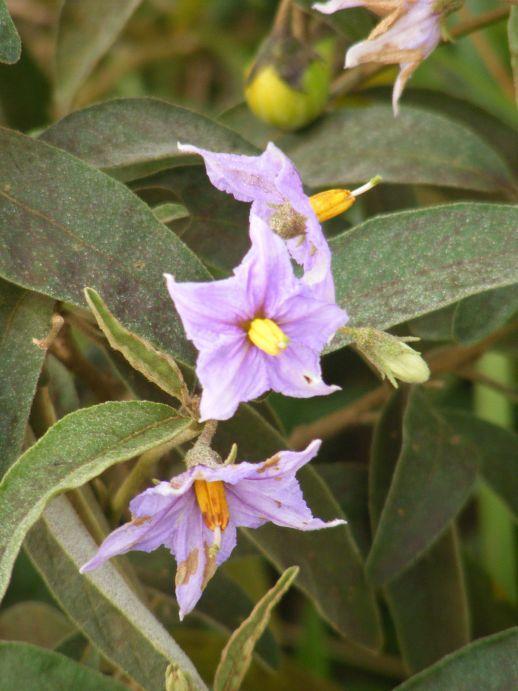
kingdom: Plantae
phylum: Tracheophyta
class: Magnoliopsida
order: Solanales
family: Solanaceae
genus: Solanum
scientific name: Solanum campylacanthum
